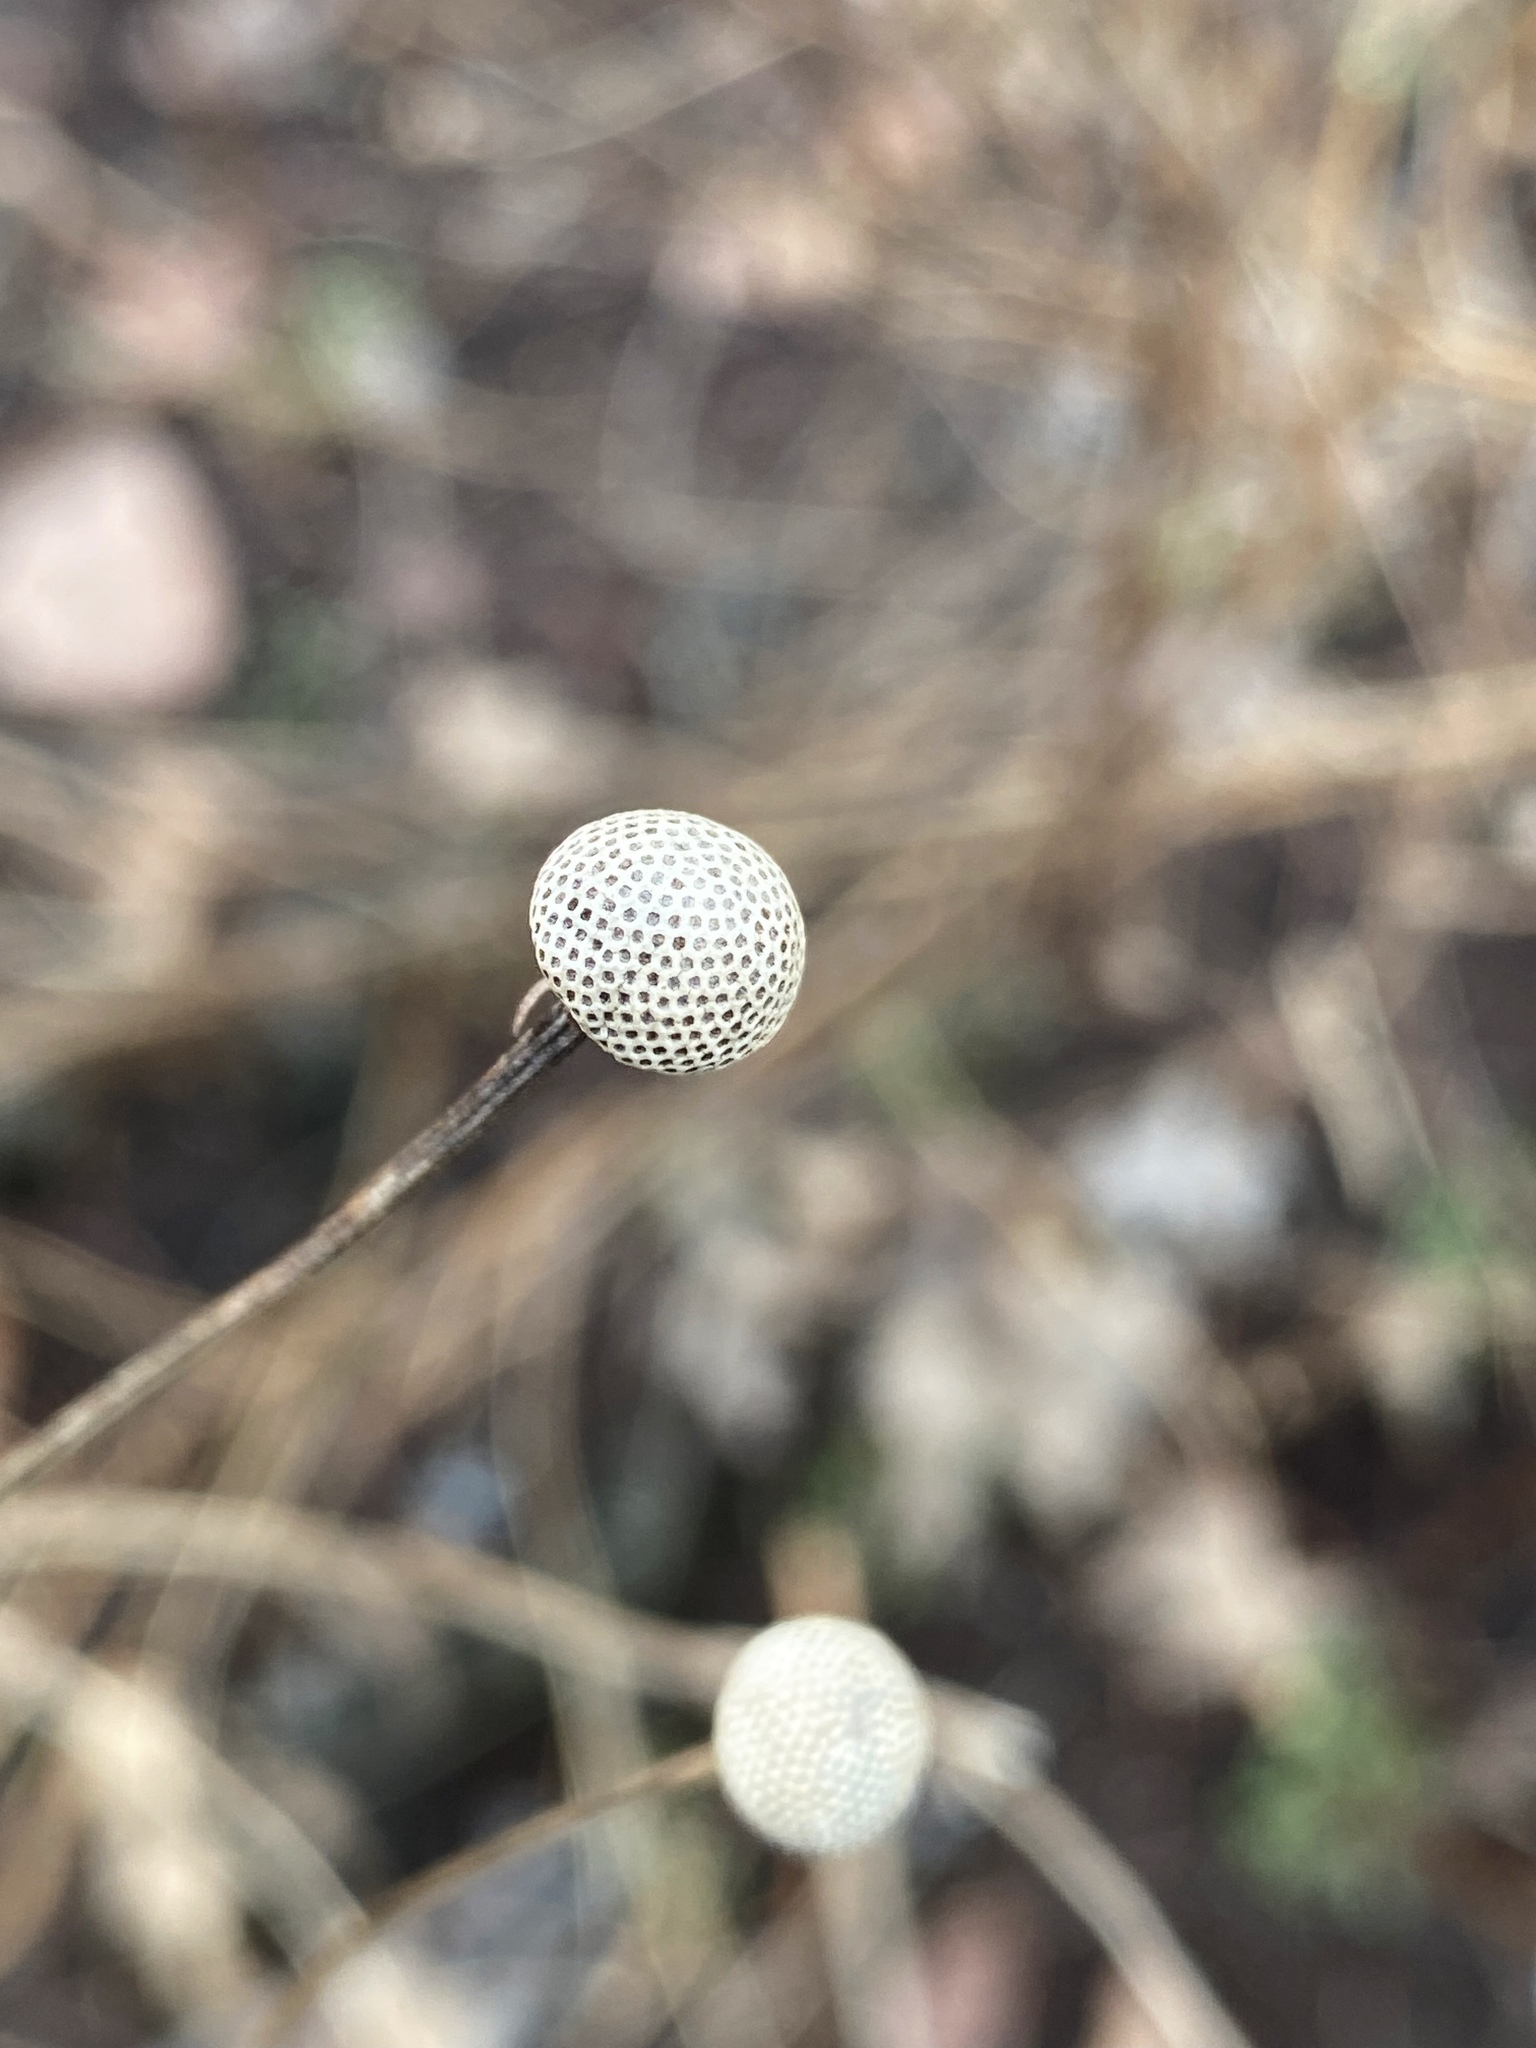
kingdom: Plantae
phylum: Tracheophyta
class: Magnoliopsida
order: Asterales
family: Asteraceae
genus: Helenium
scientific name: Helenium autumnale
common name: Sneezeweed
